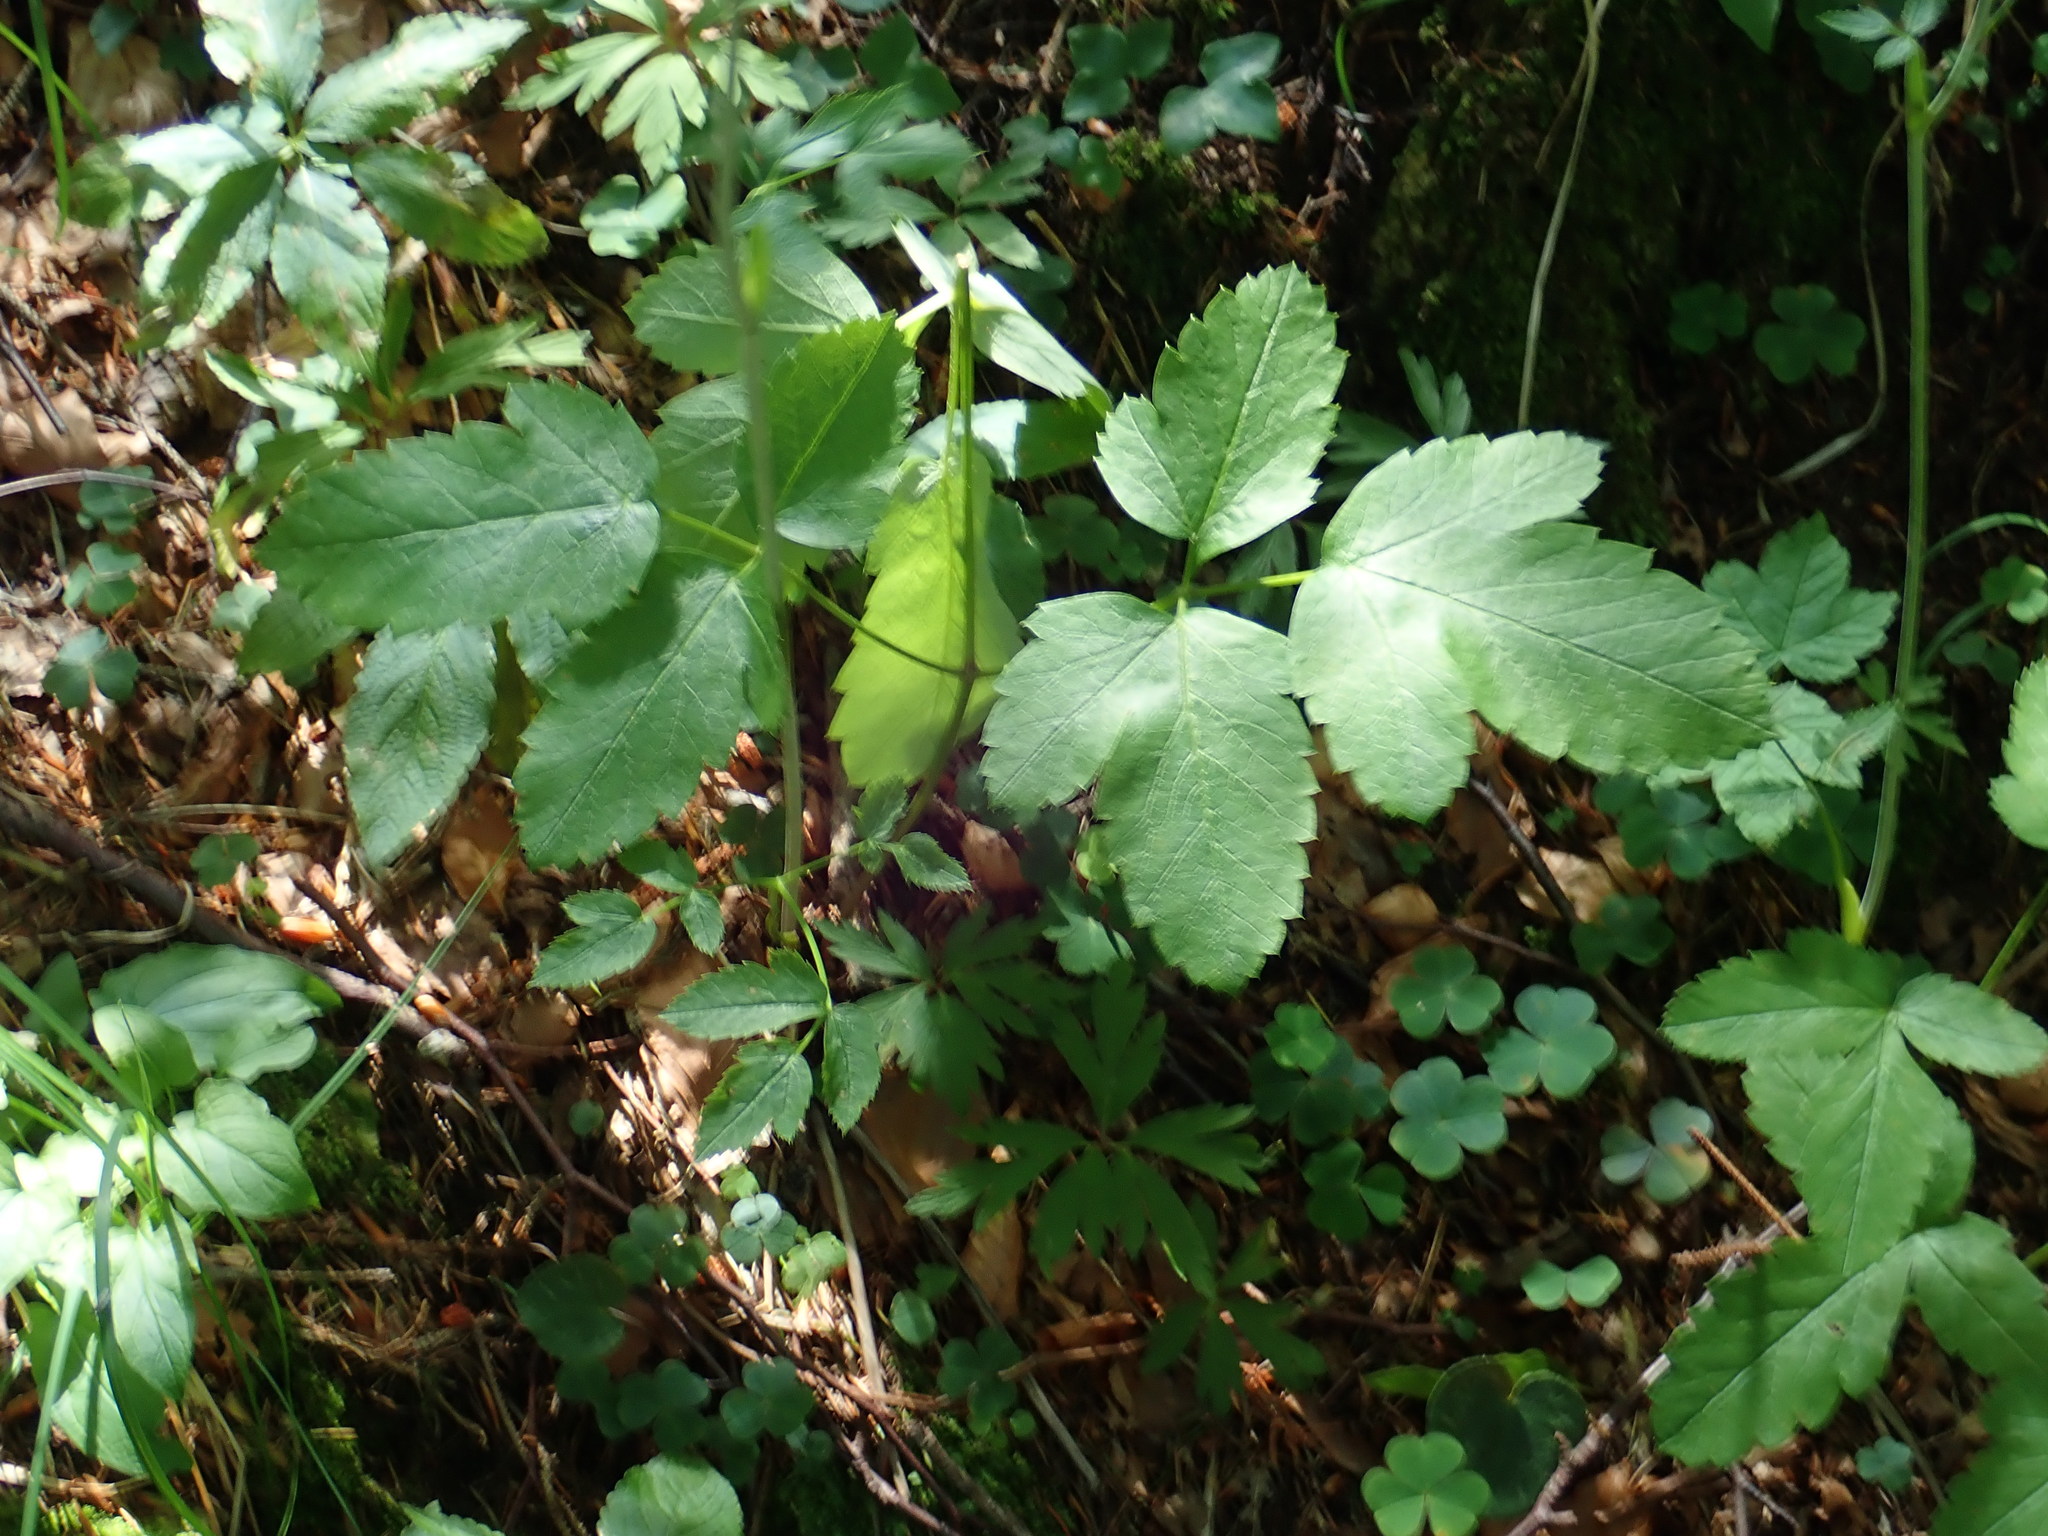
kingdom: Plantae
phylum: Tracheophyta
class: Magnoliopsida
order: Apiales
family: Apiaceae
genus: Laserpitium
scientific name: Laserpitium krapffii
